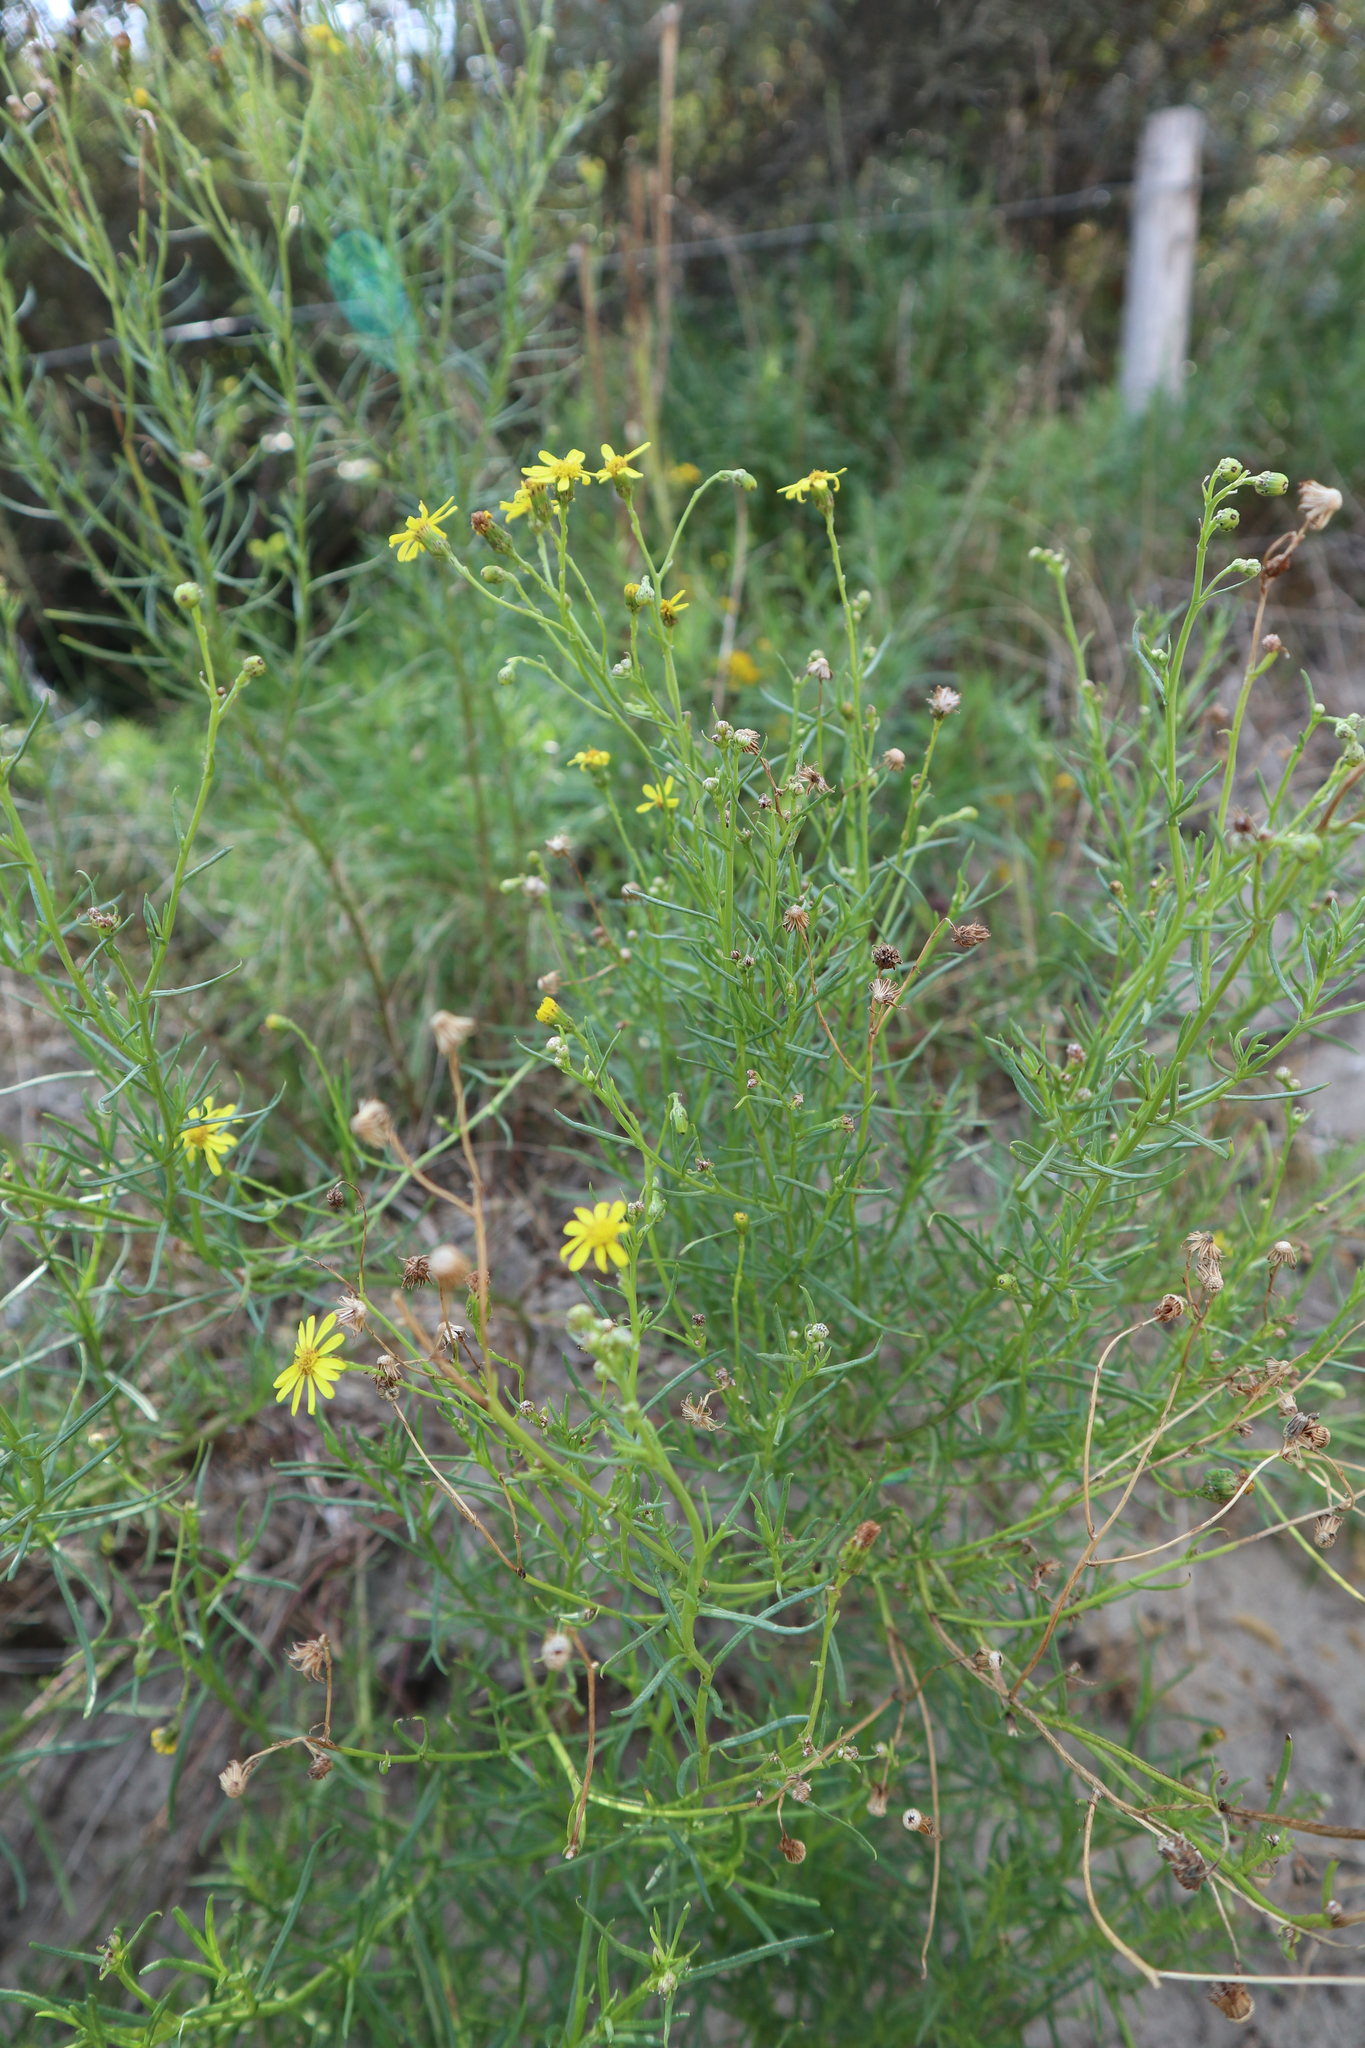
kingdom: Plantae
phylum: Tracheophyta
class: Magnoliopsida
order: Asterales
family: Asteraceae
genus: Senecio
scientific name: Senecio inaequidens
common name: Narrow-leaved ragwort
